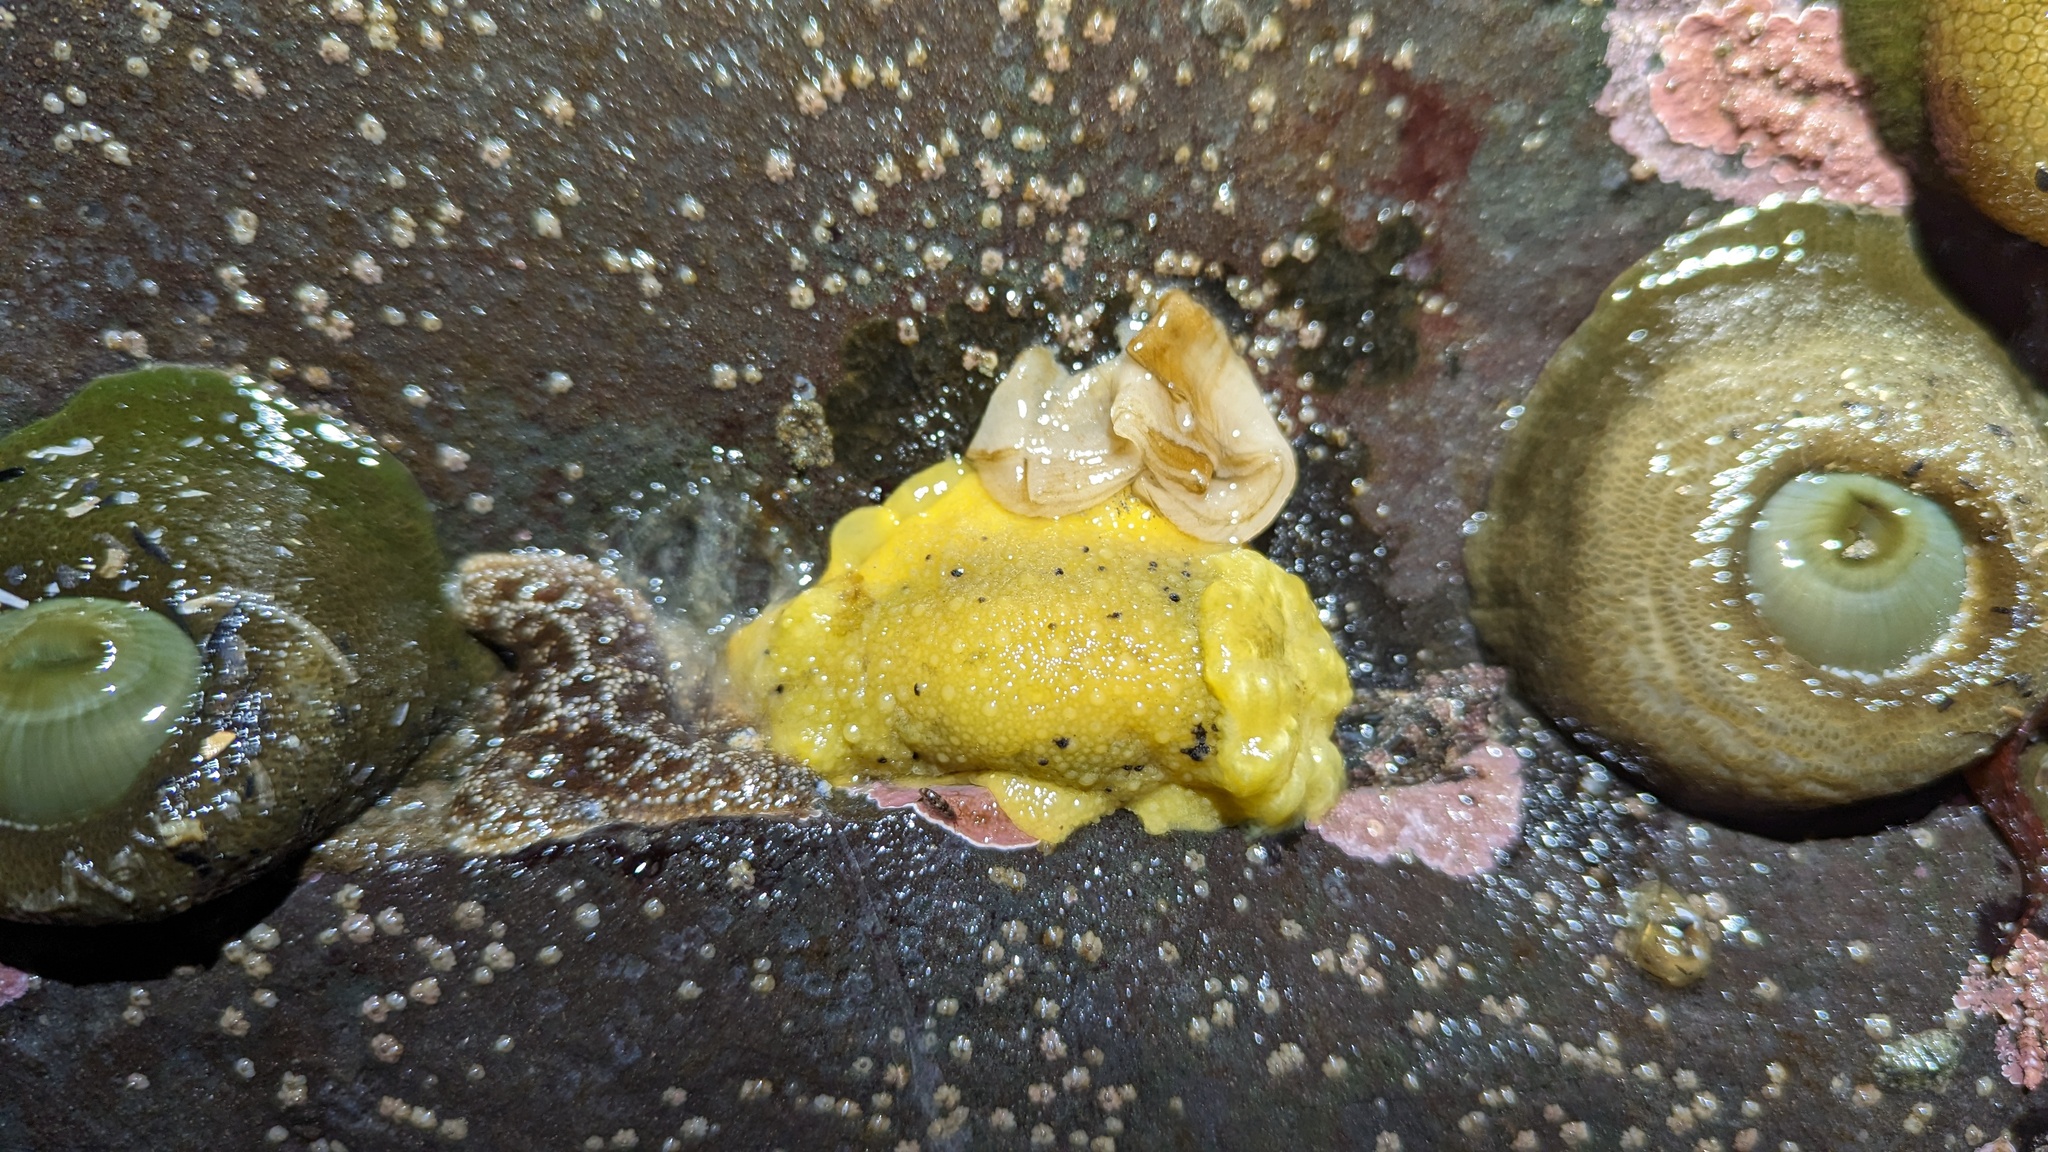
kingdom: Animalia
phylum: Mollusca
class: Gastropoda
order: Nudibranchia
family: Dorididae
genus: Doris
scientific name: Doris montereyensis
